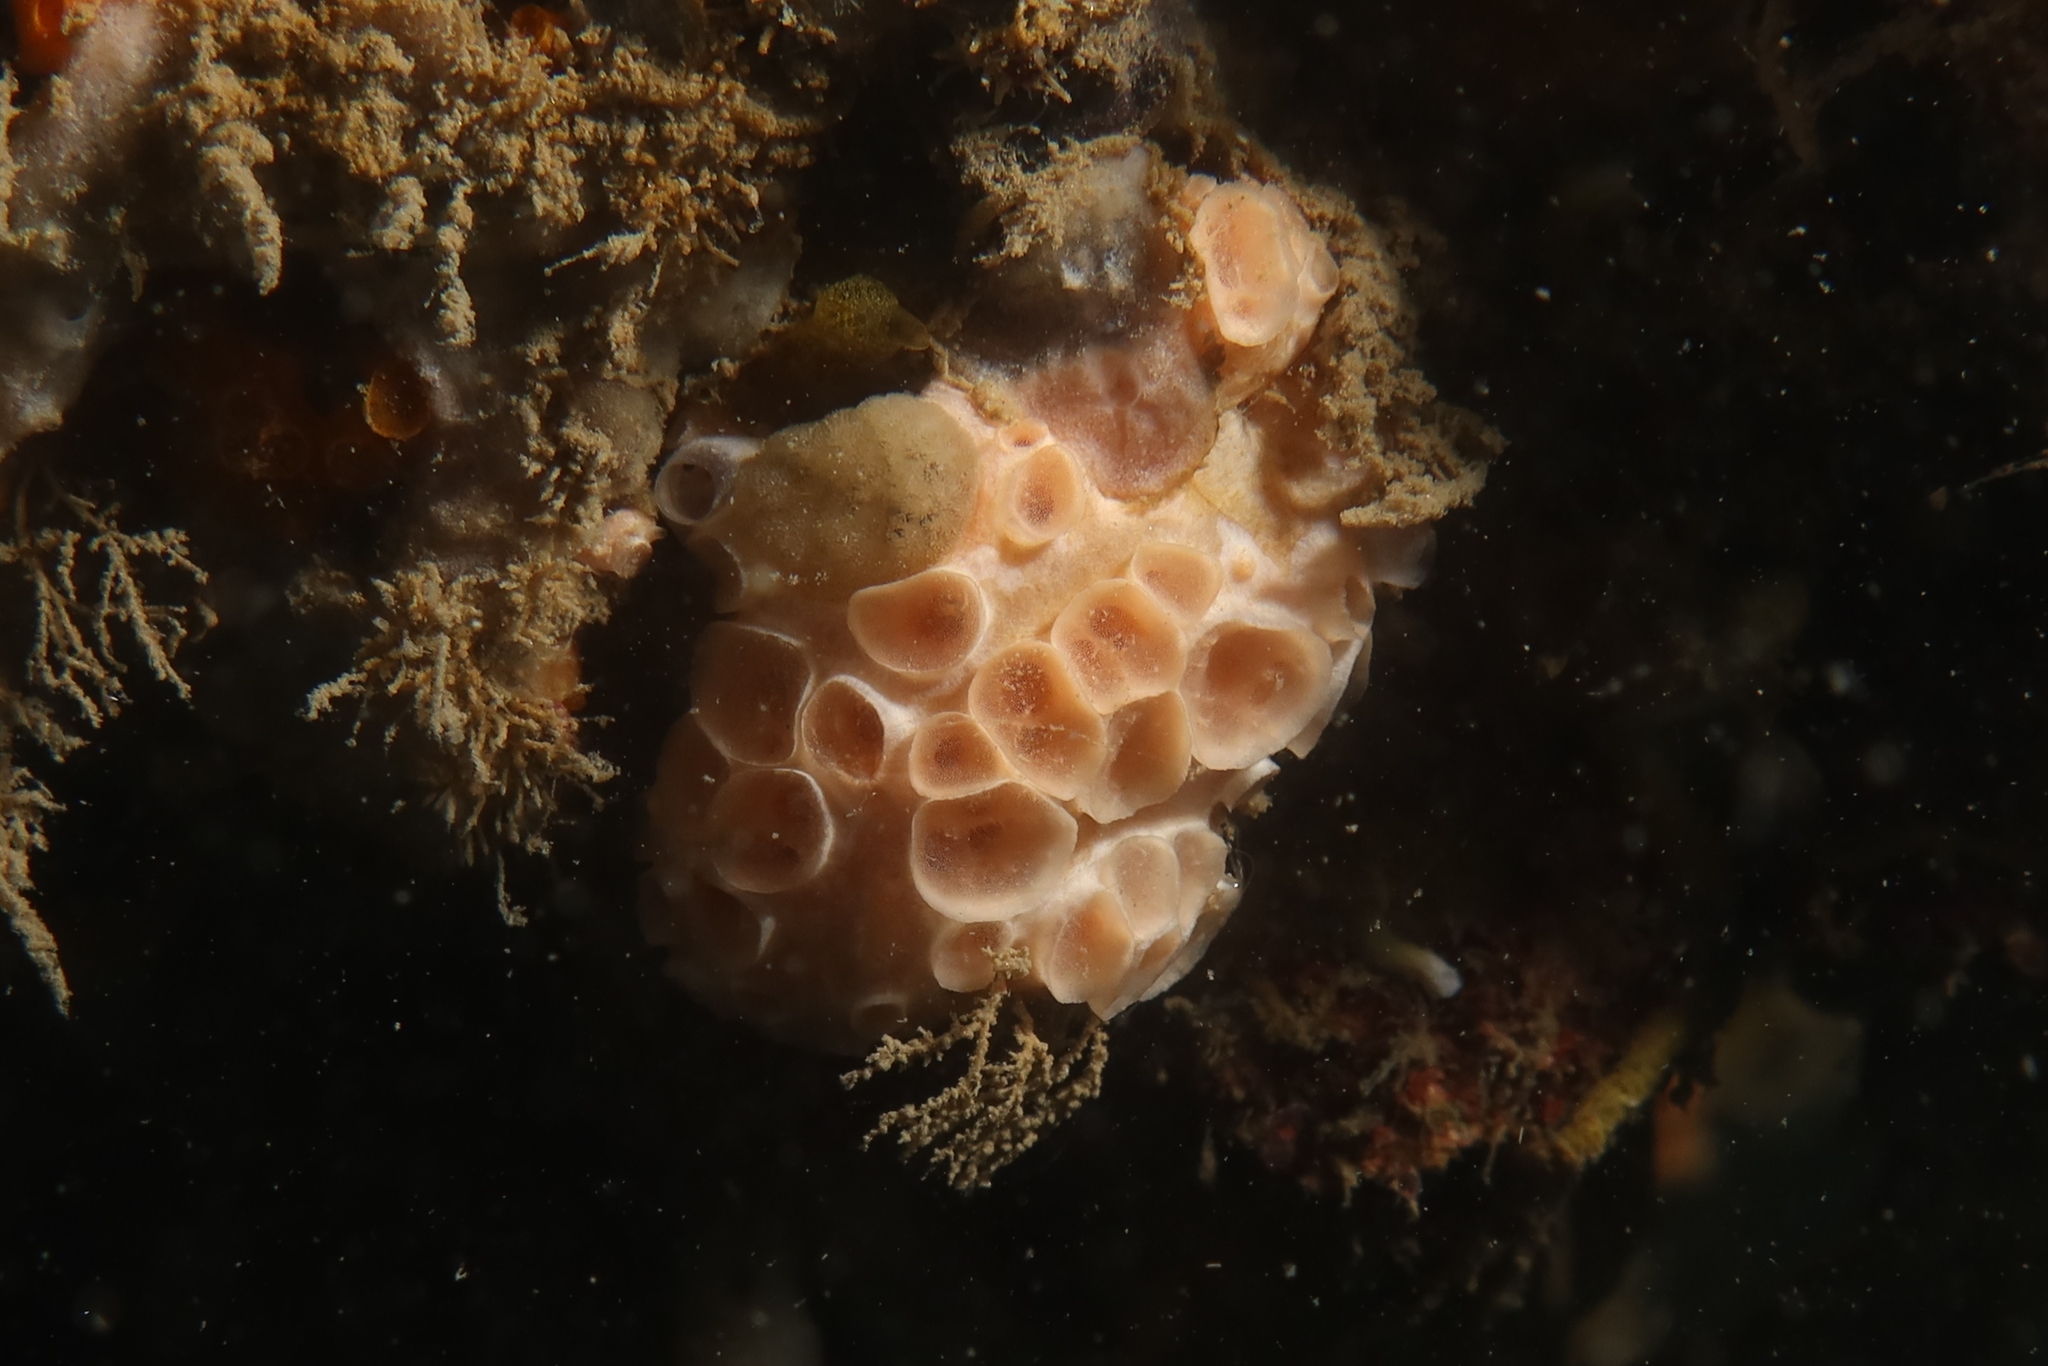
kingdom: Animalia
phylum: Porifera
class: Demospongiae
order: Poecilosclerida
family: Hymedesmiidae
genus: Hemimycale
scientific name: Hemimycale columella
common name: Crater sponge
